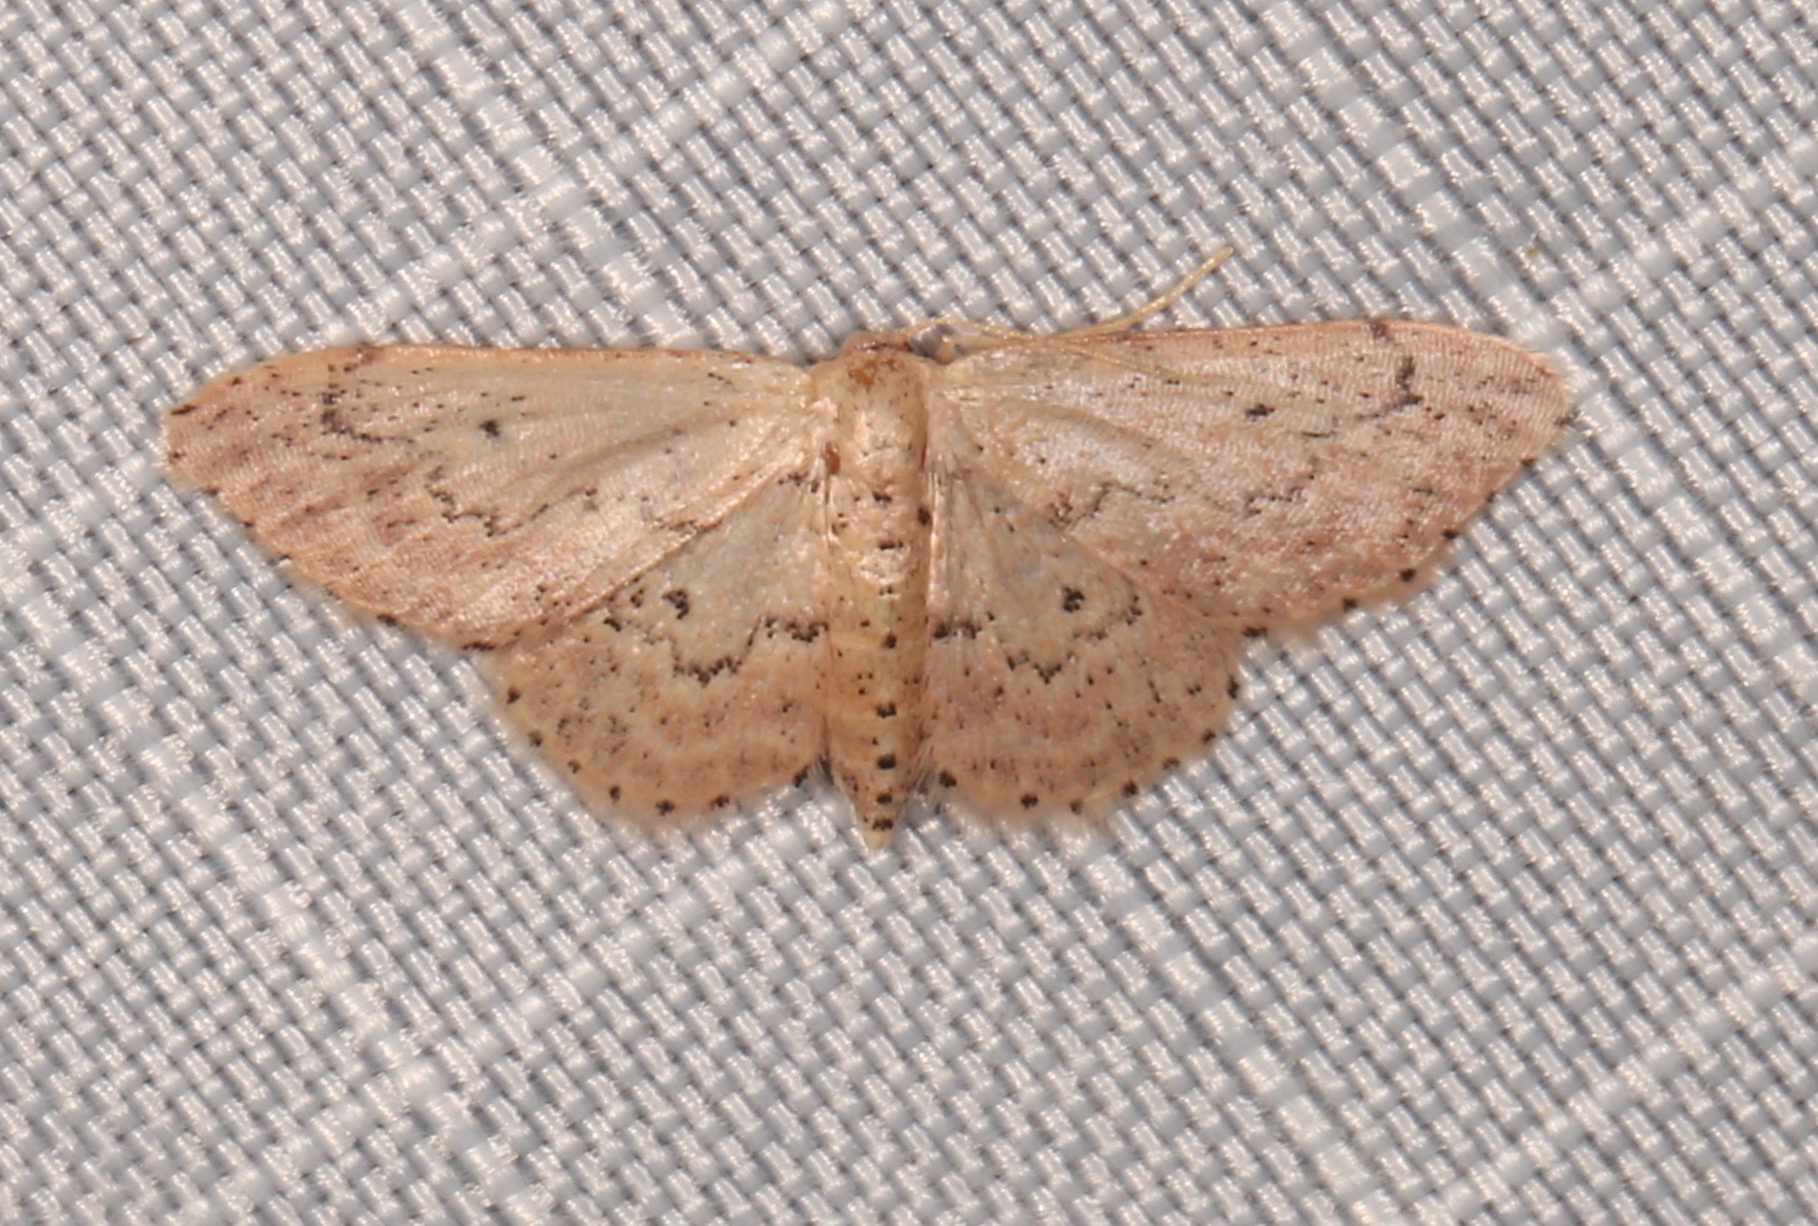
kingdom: Animalia
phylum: Arthropoda
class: Insecta
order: Lepidoptera
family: Geometridae
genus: Idaea
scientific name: Idaea micropterata
